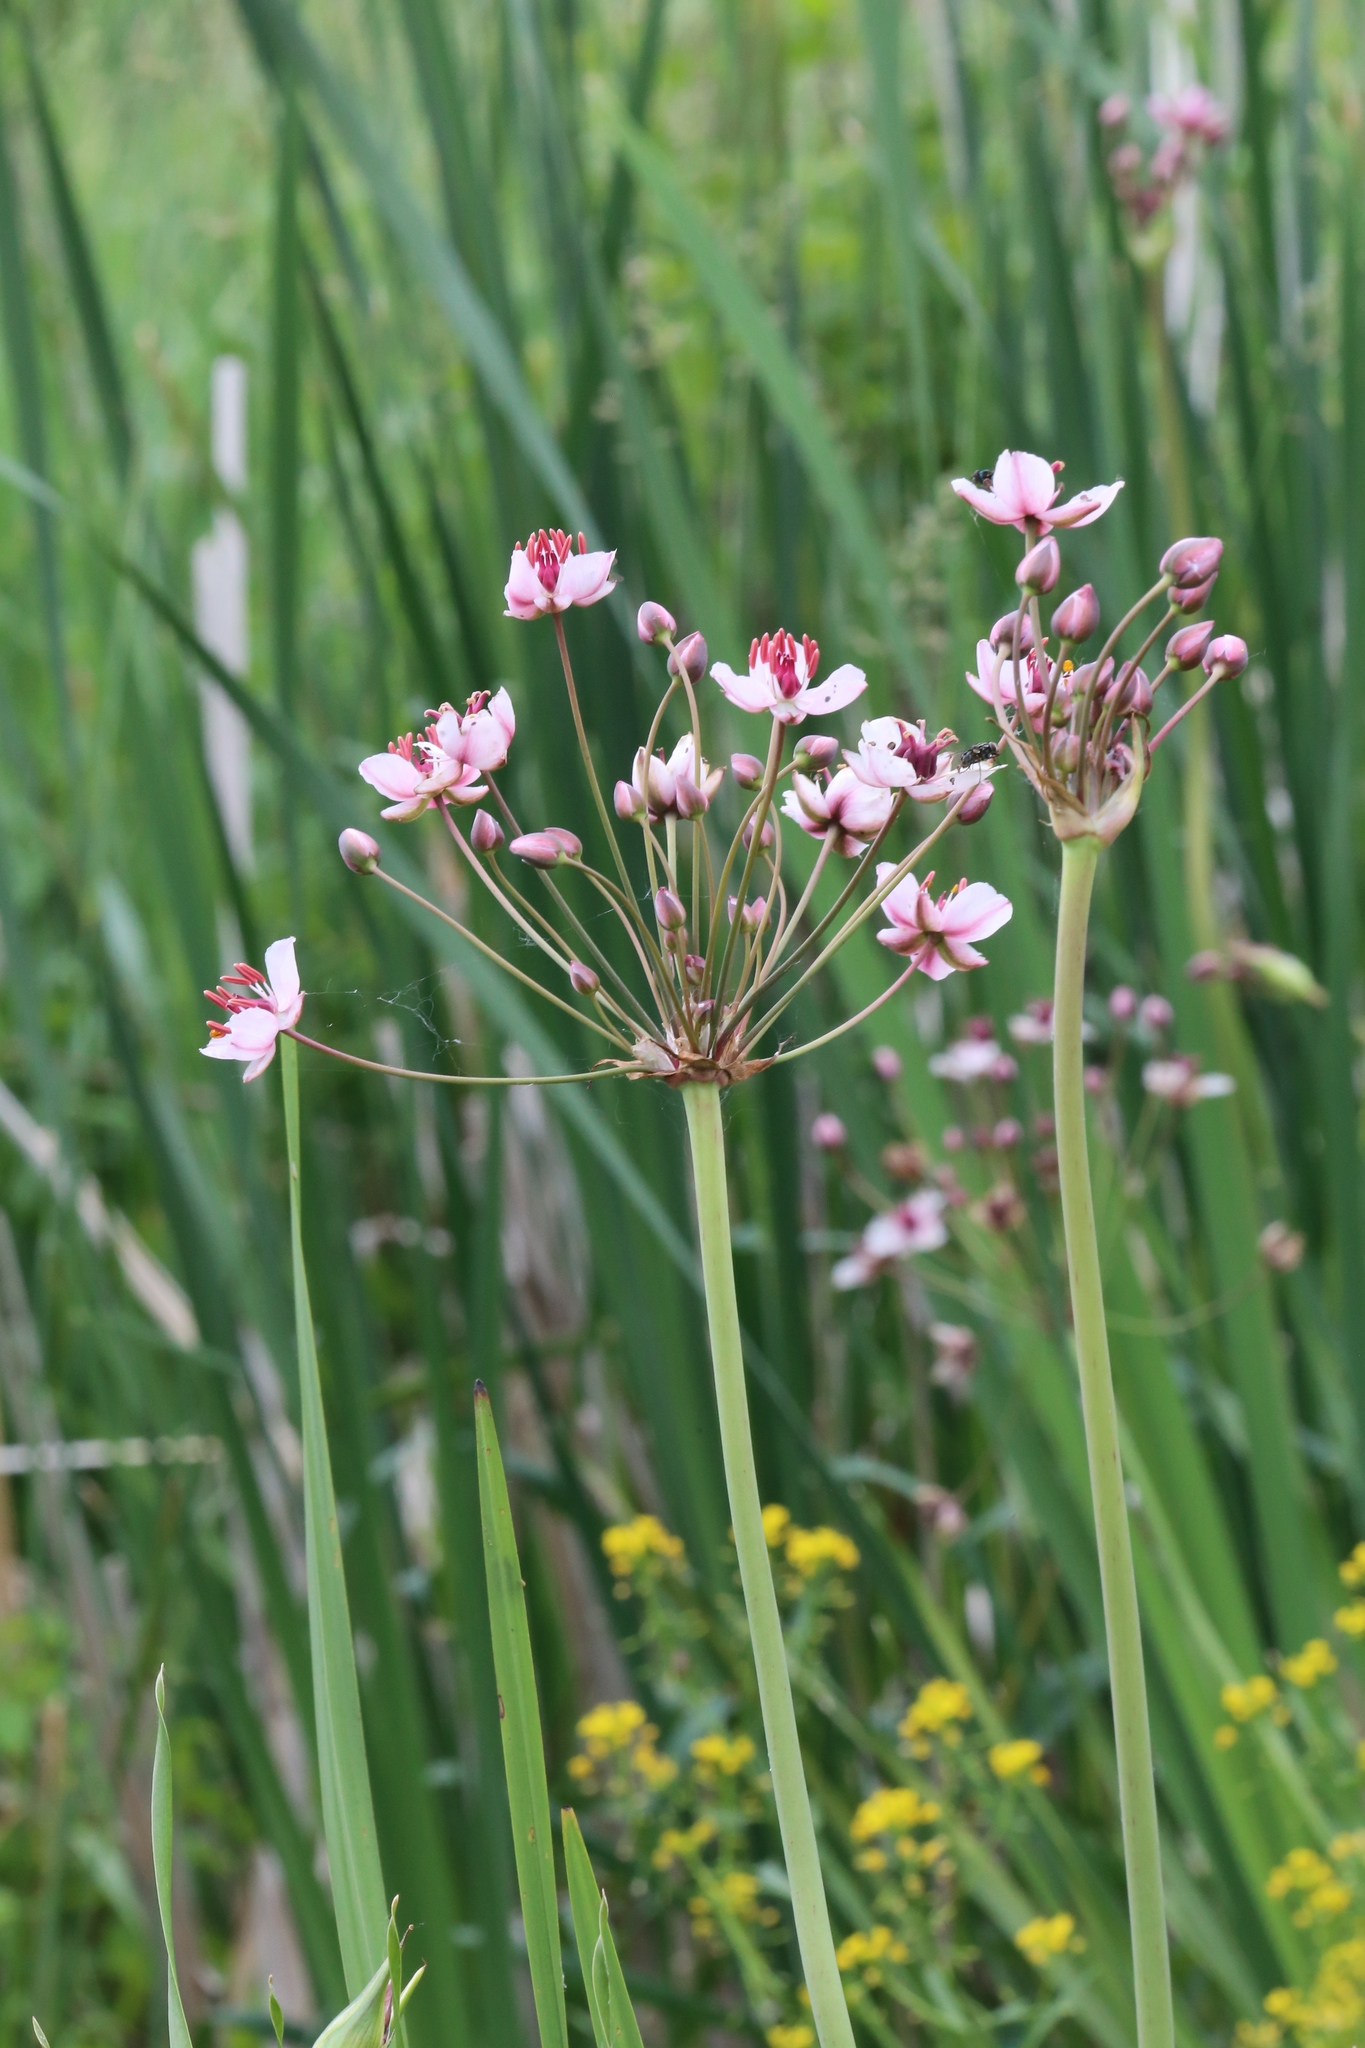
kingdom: Plantae
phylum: Tracheophyta
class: Liliopsida
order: Alismatales
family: Butomaceae
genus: Butomus
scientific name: Butomus umbellatus
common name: Flowering-rush
